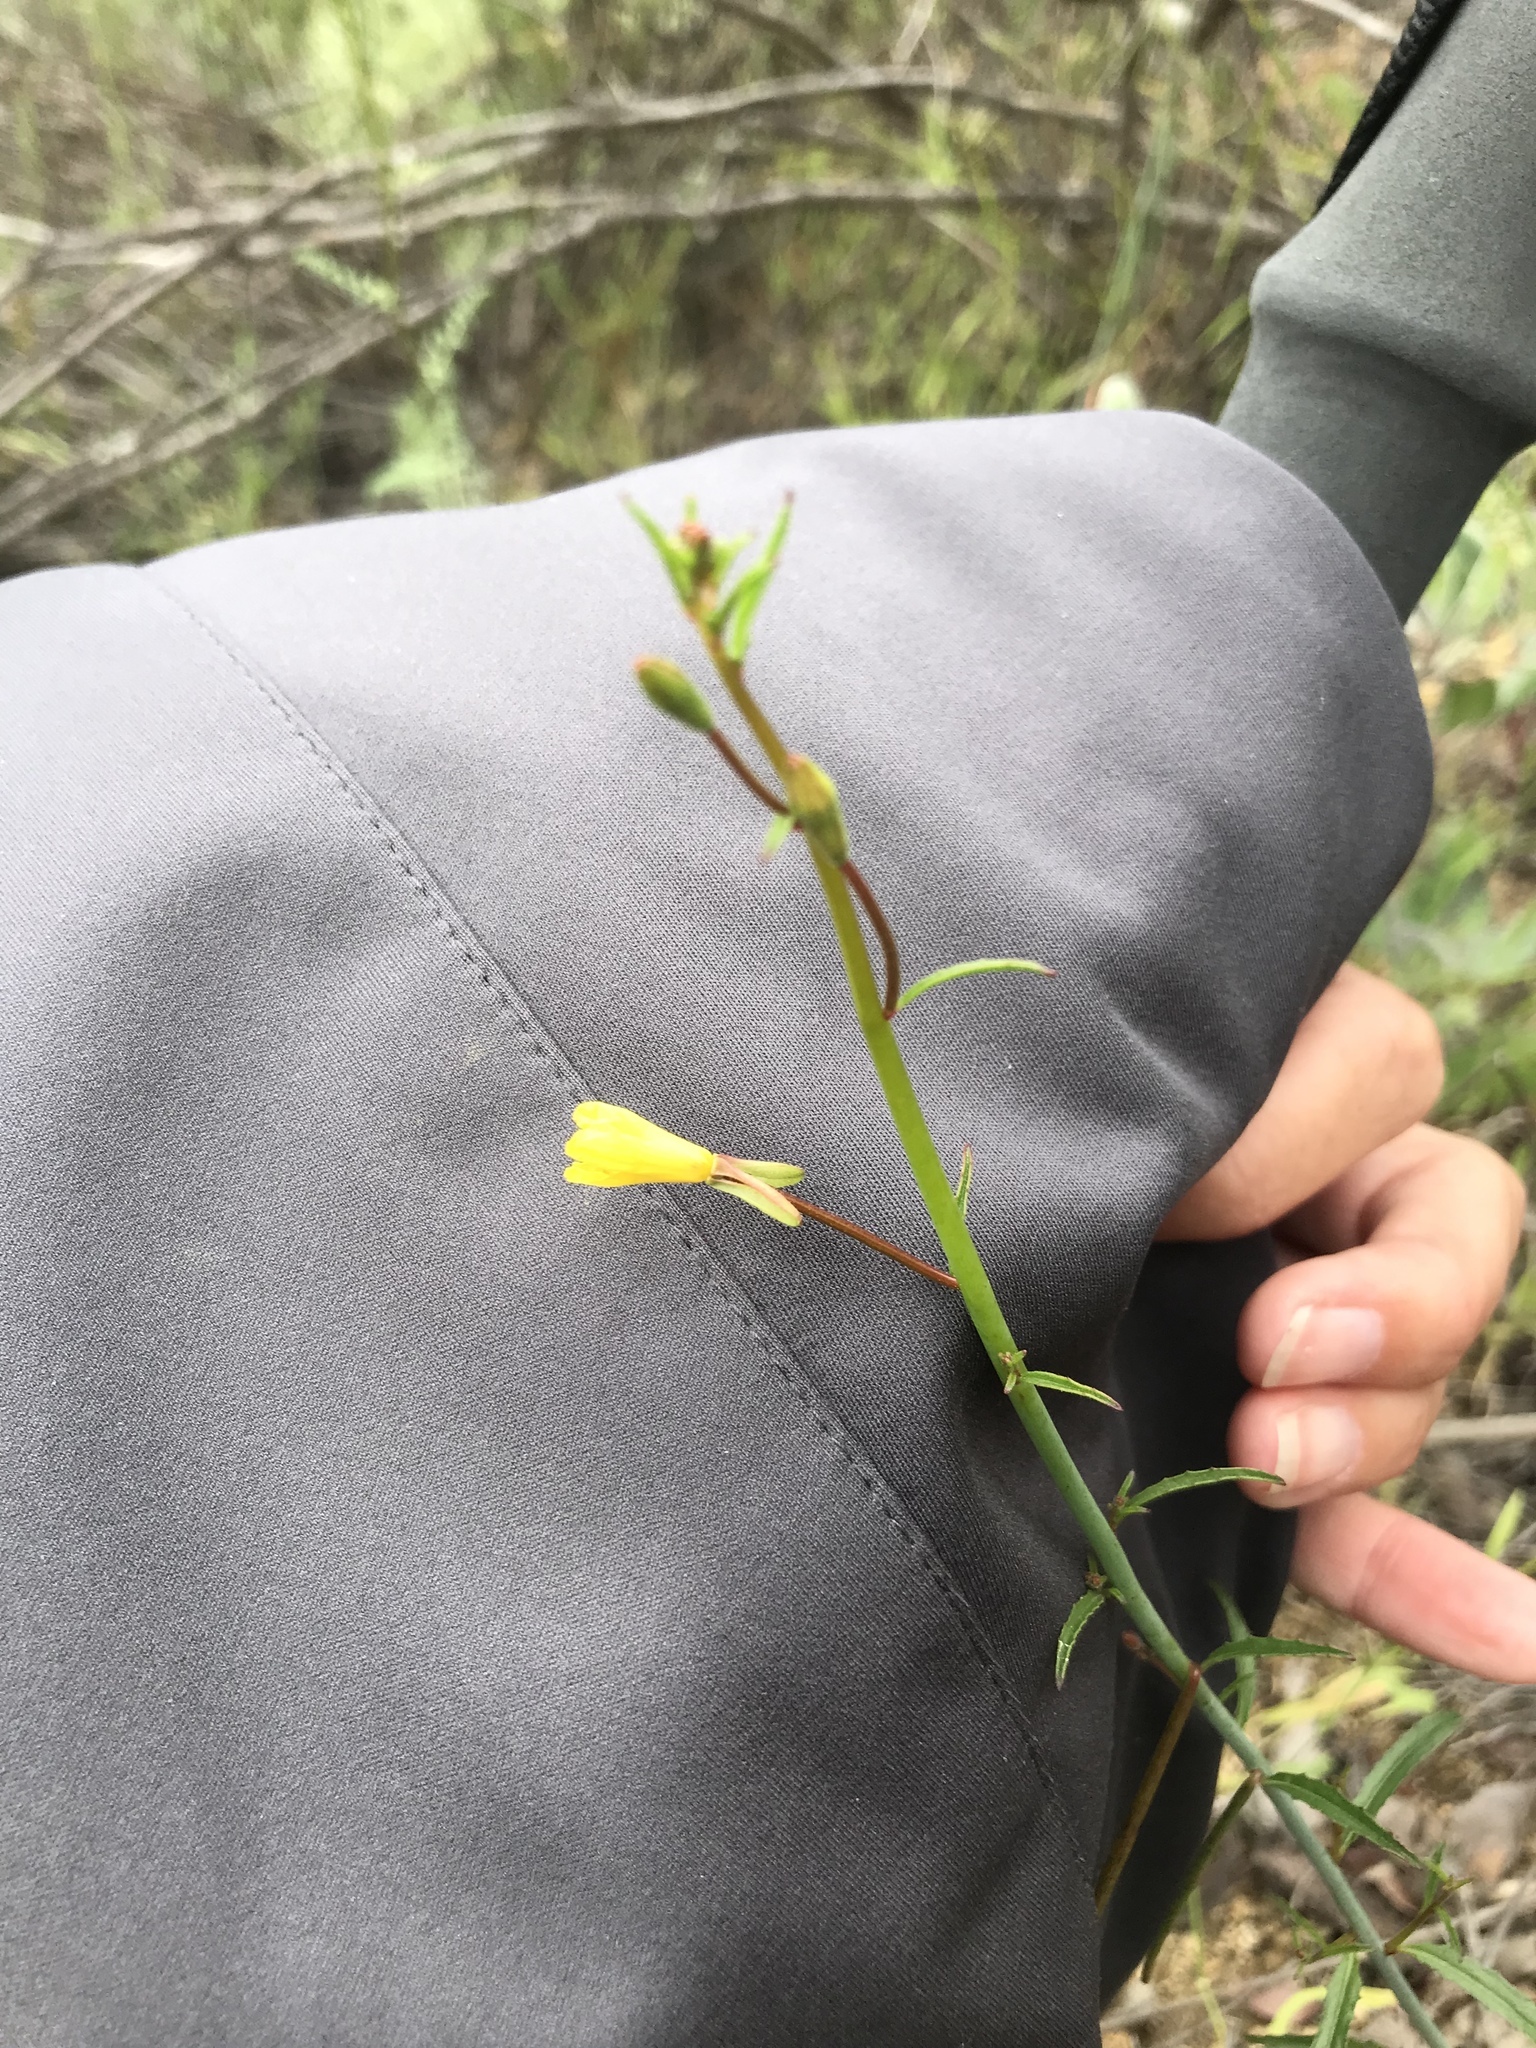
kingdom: Plantae
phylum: Tracheophyta
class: Magnoliopsida
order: Myrtales
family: Onagraceae
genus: Eulobus
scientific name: Eulobus californicus
